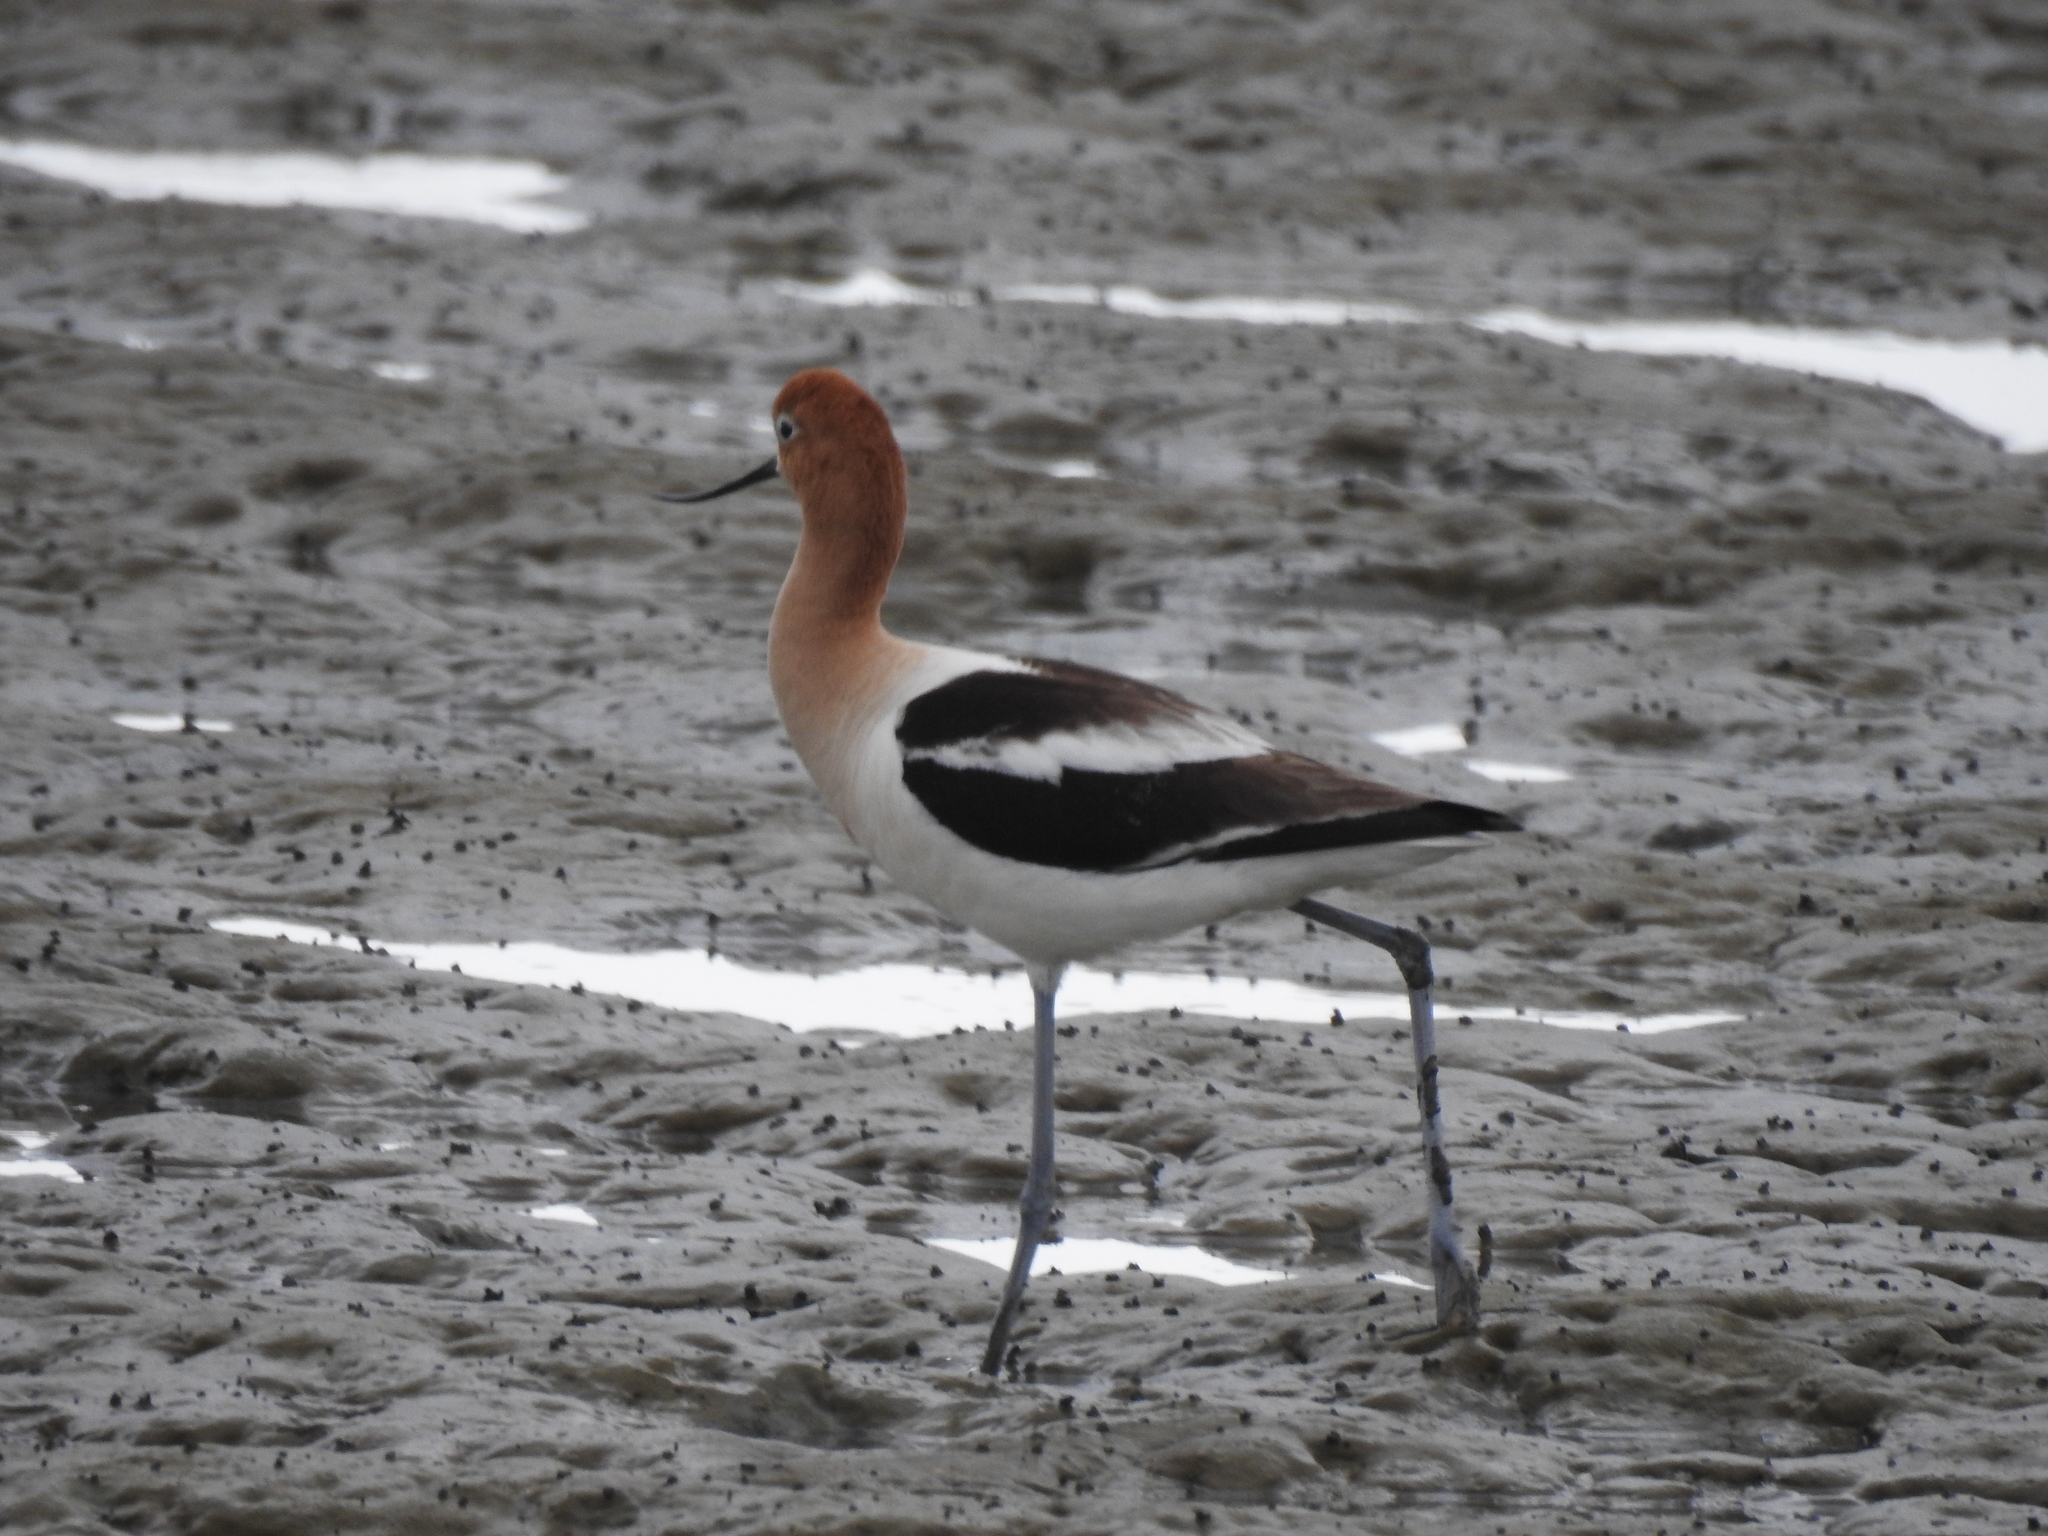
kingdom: Animalia
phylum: Chordata
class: Aves
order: Charadriiformes
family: Recurvirostridae
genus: Recurvirostra
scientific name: Recurvirostra americana
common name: American avocet
